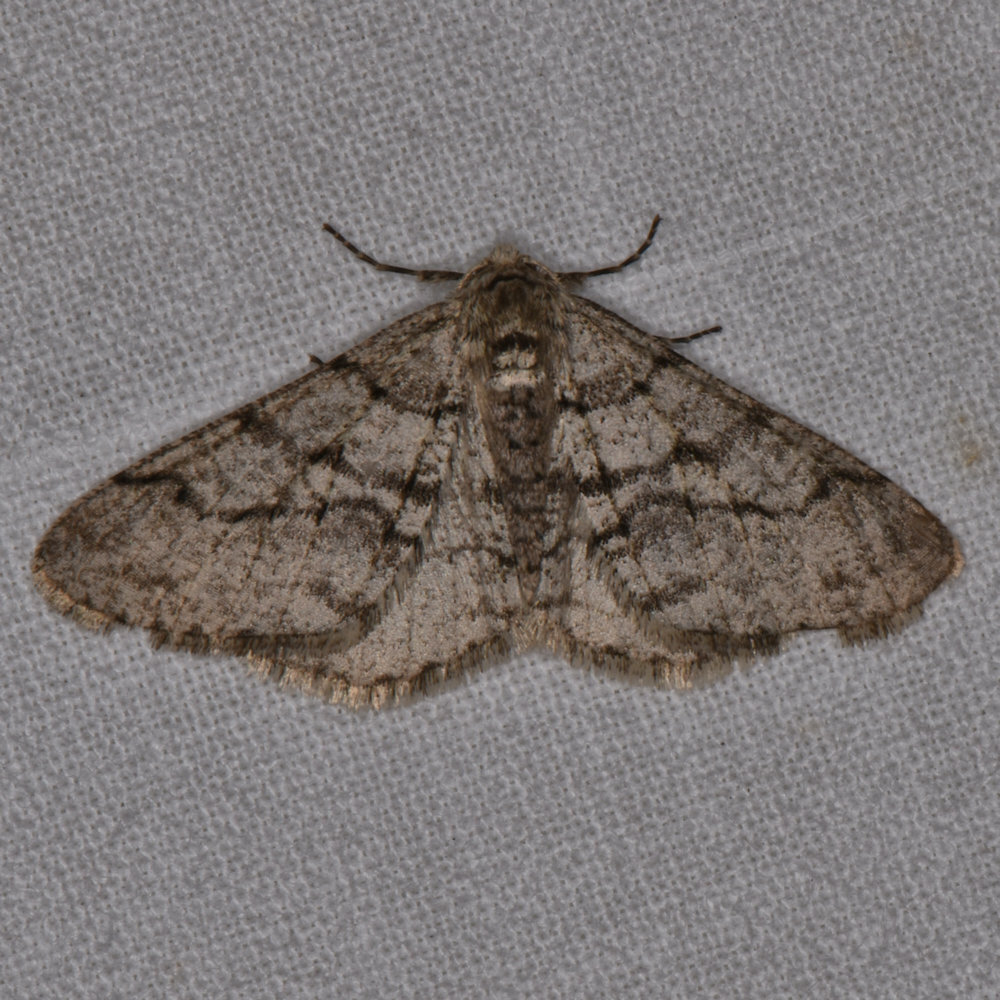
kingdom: Animalia
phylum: Arthropoda
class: Insecta
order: Lepidoptera
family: Geometridae
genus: Phigalia
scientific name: Phigalia titea
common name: Spiny looper
